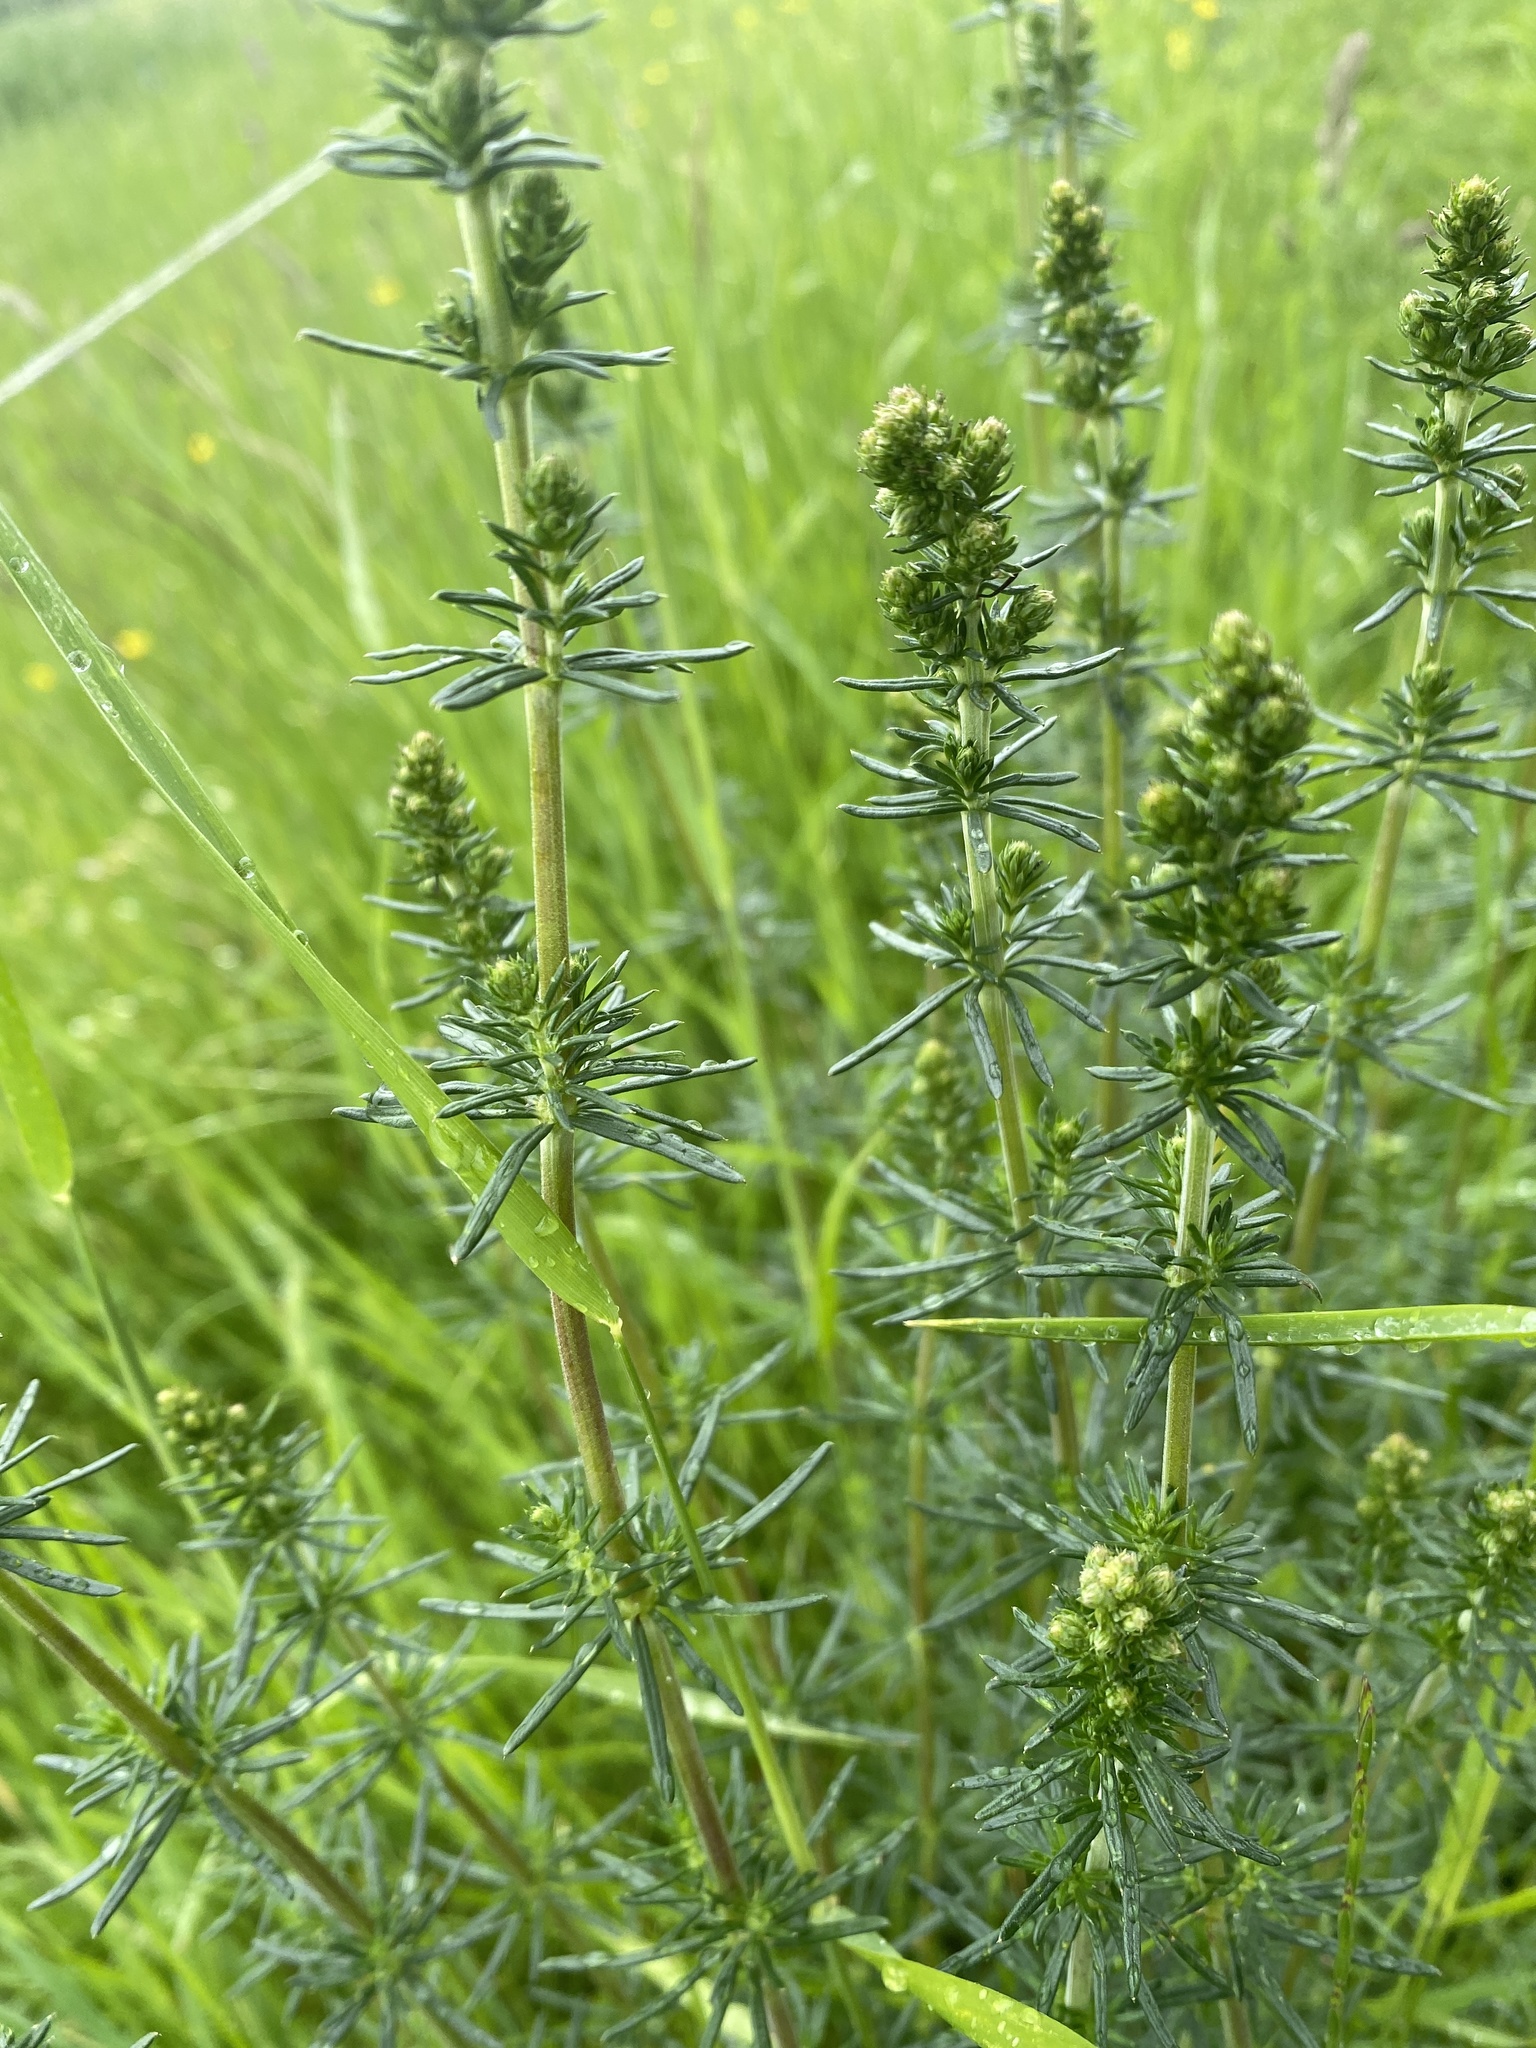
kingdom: Plantae
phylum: Tracheophyta
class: Magnoliopsida
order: Gentianales
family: Rubiaceae
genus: Galium
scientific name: Galium verum
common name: Lady's bedstraw
